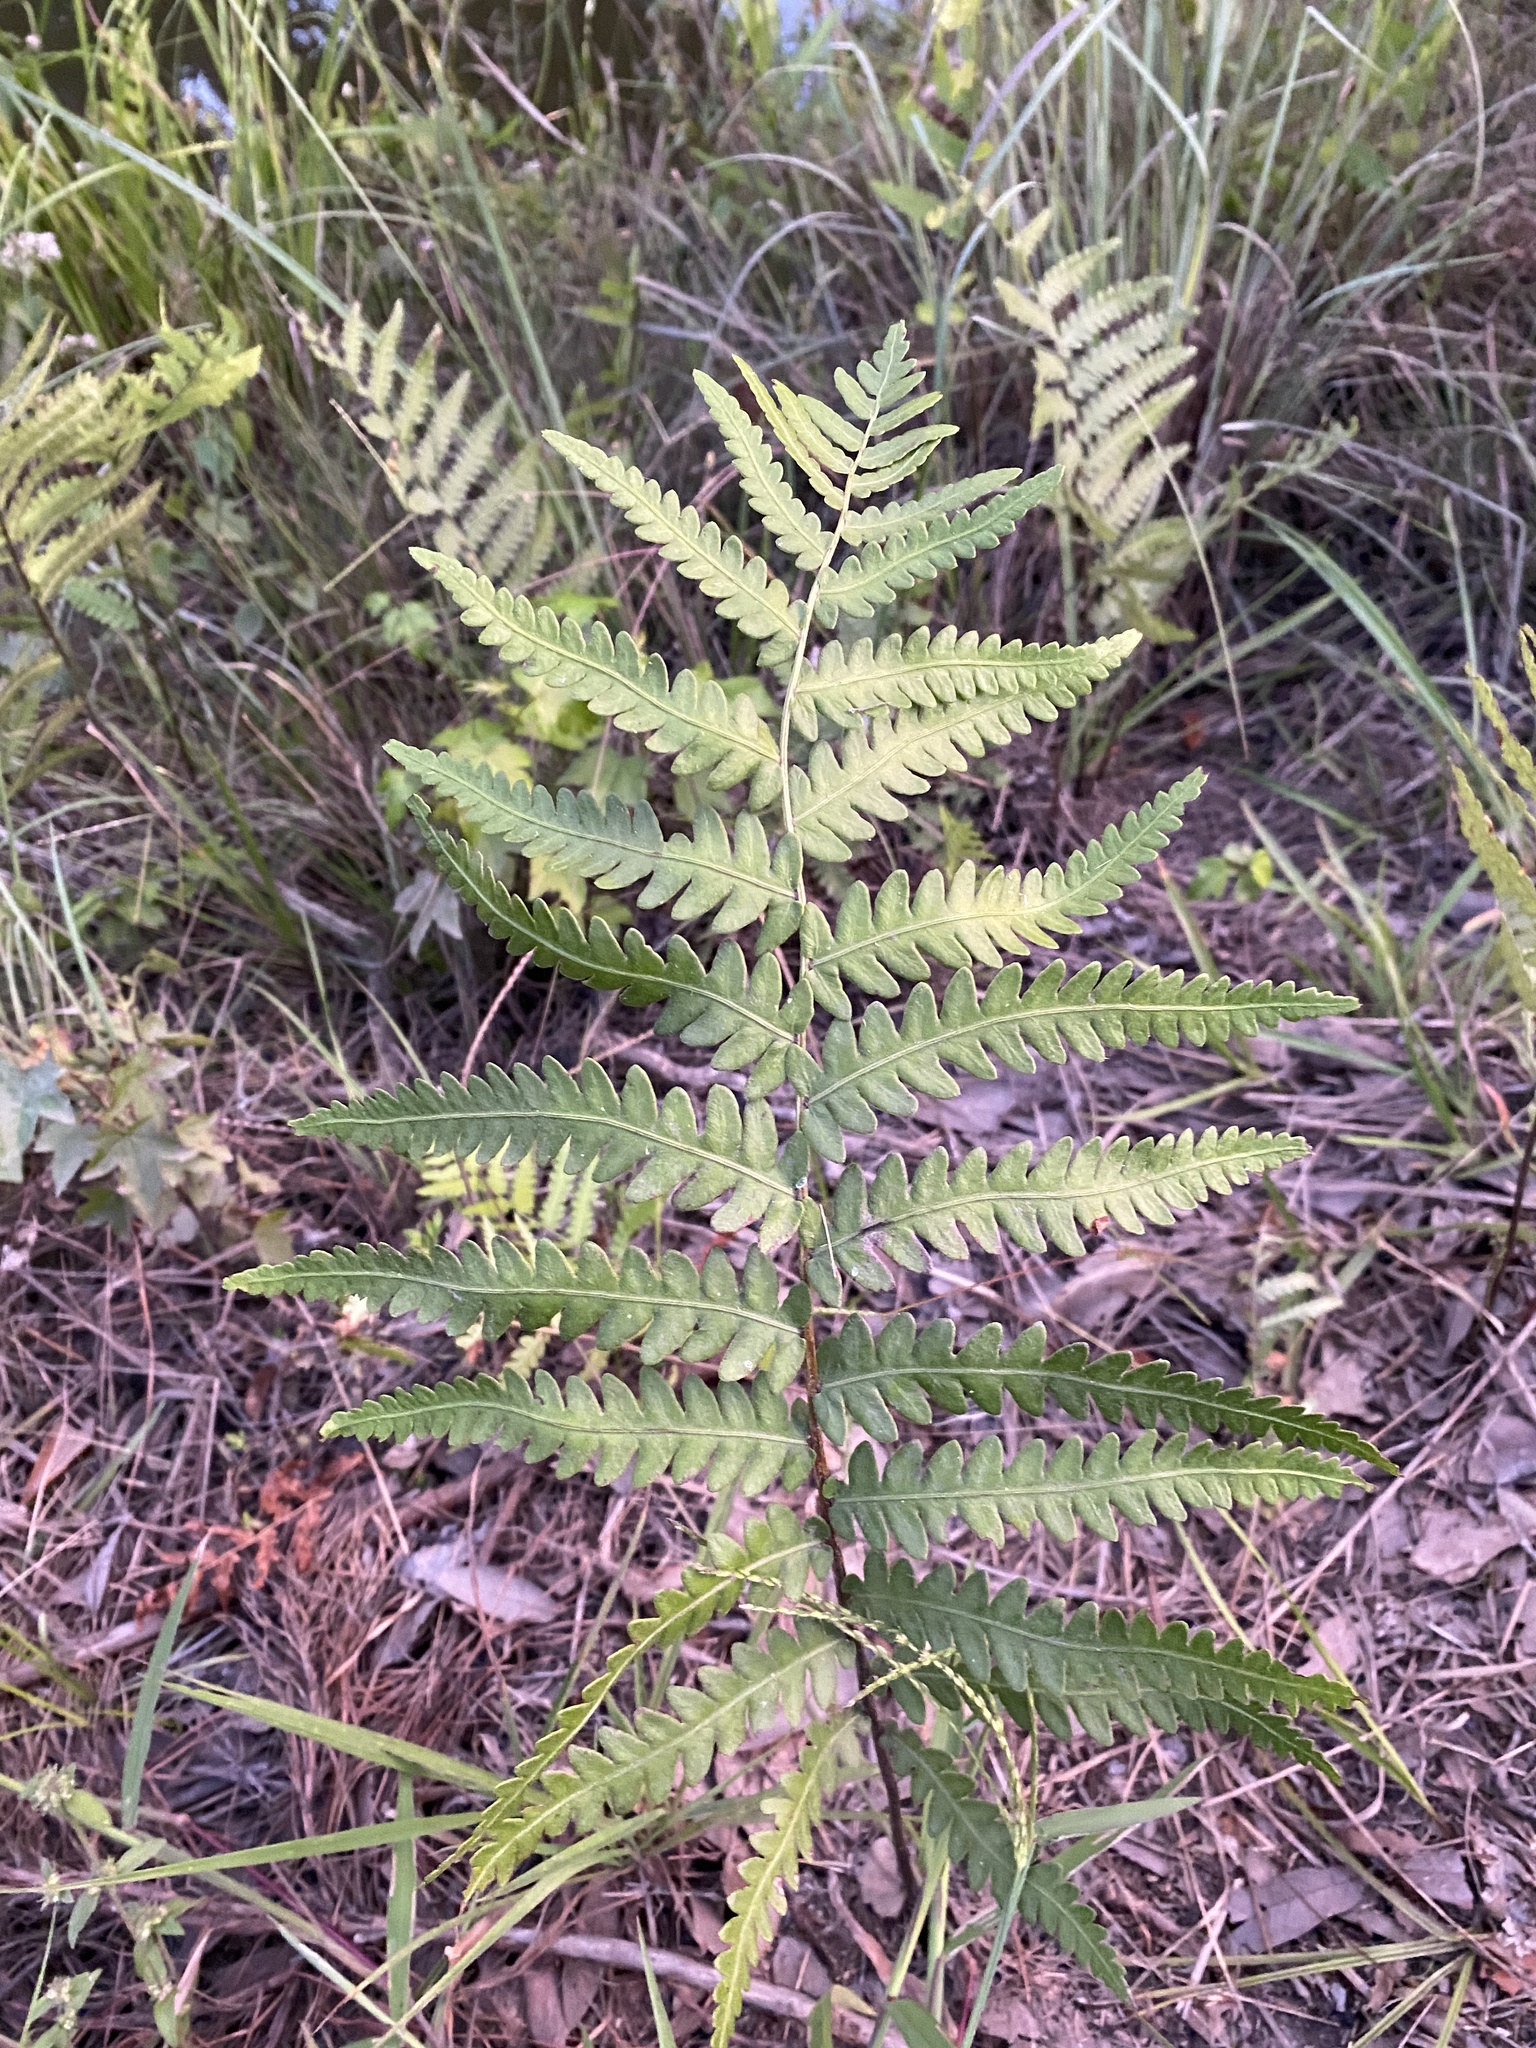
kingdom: Plantae
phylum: Tracheophyta
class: Polypodiopsida
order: Polypodiales
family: Blechnaceae
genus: Anchistea
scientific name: Anchistea virginica
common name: Virginia chain fern
